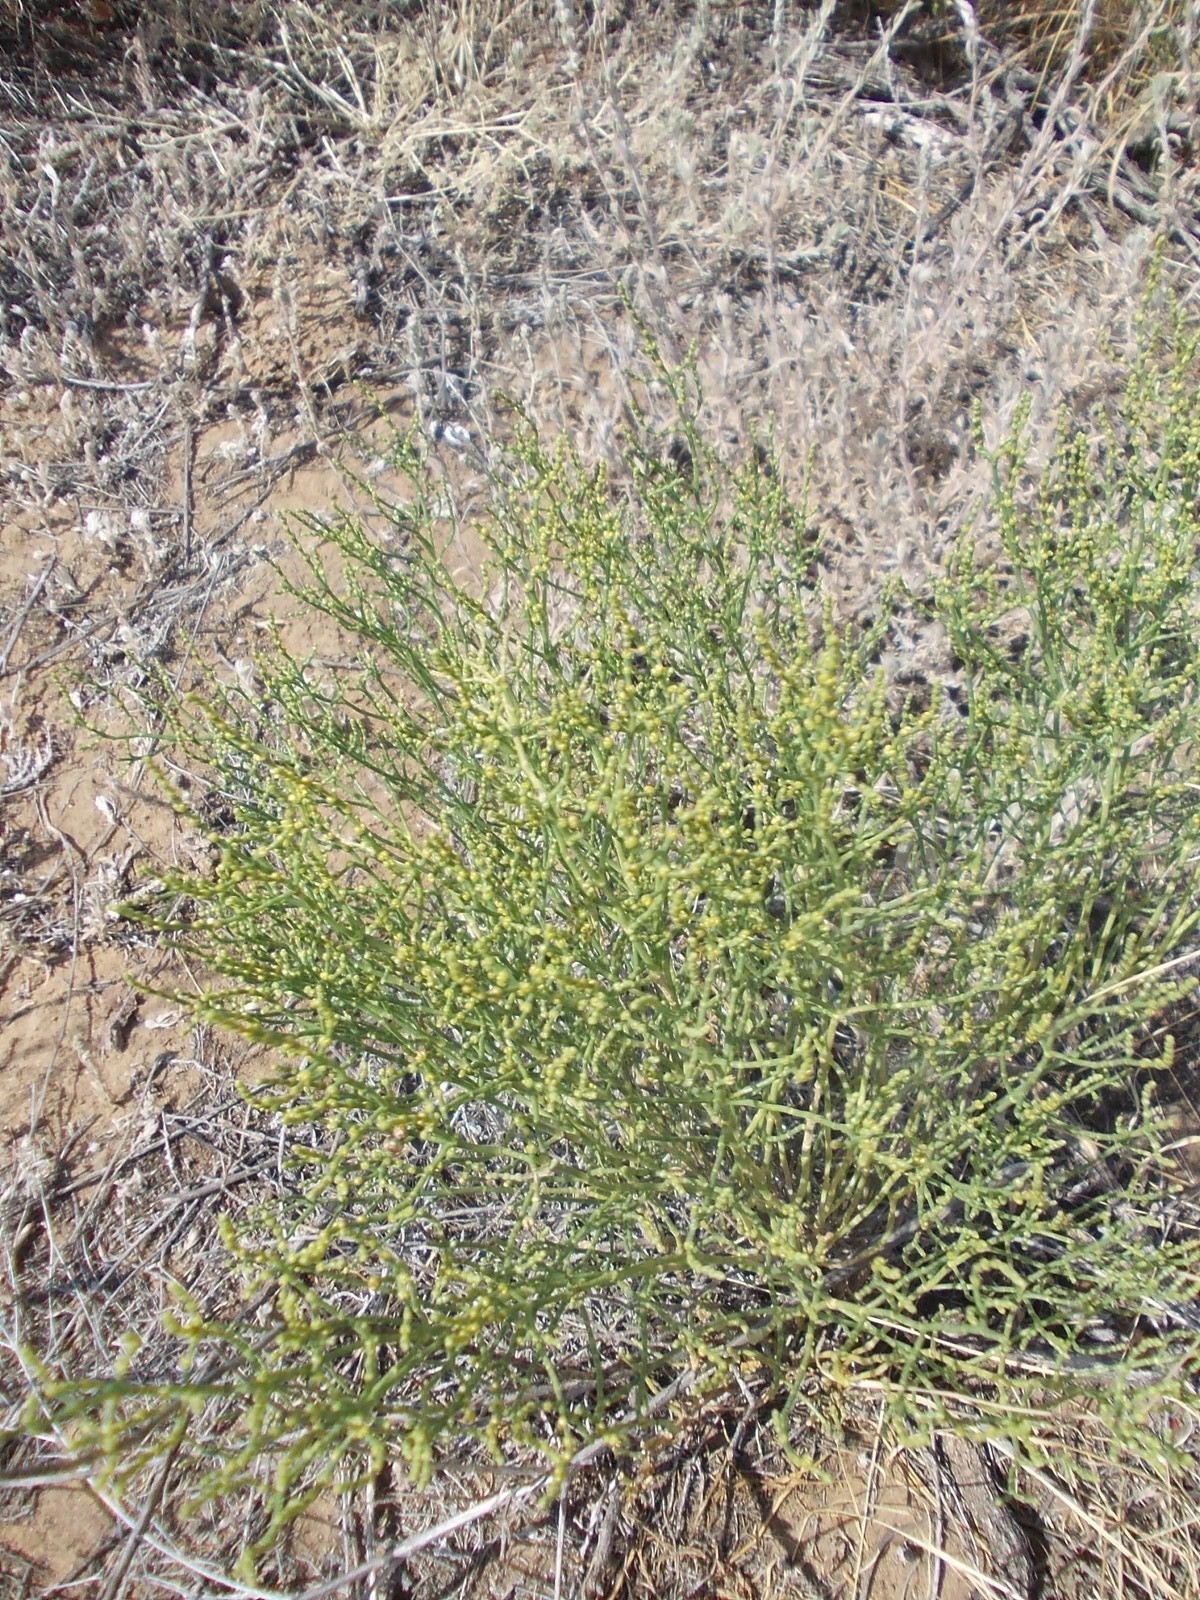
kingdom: Plantae
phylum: Tracheophyta
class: Magnoliopsida
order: Caryophyllales
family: Amaranthaceae
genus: Anabasis
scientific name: Anabasis aphylla
